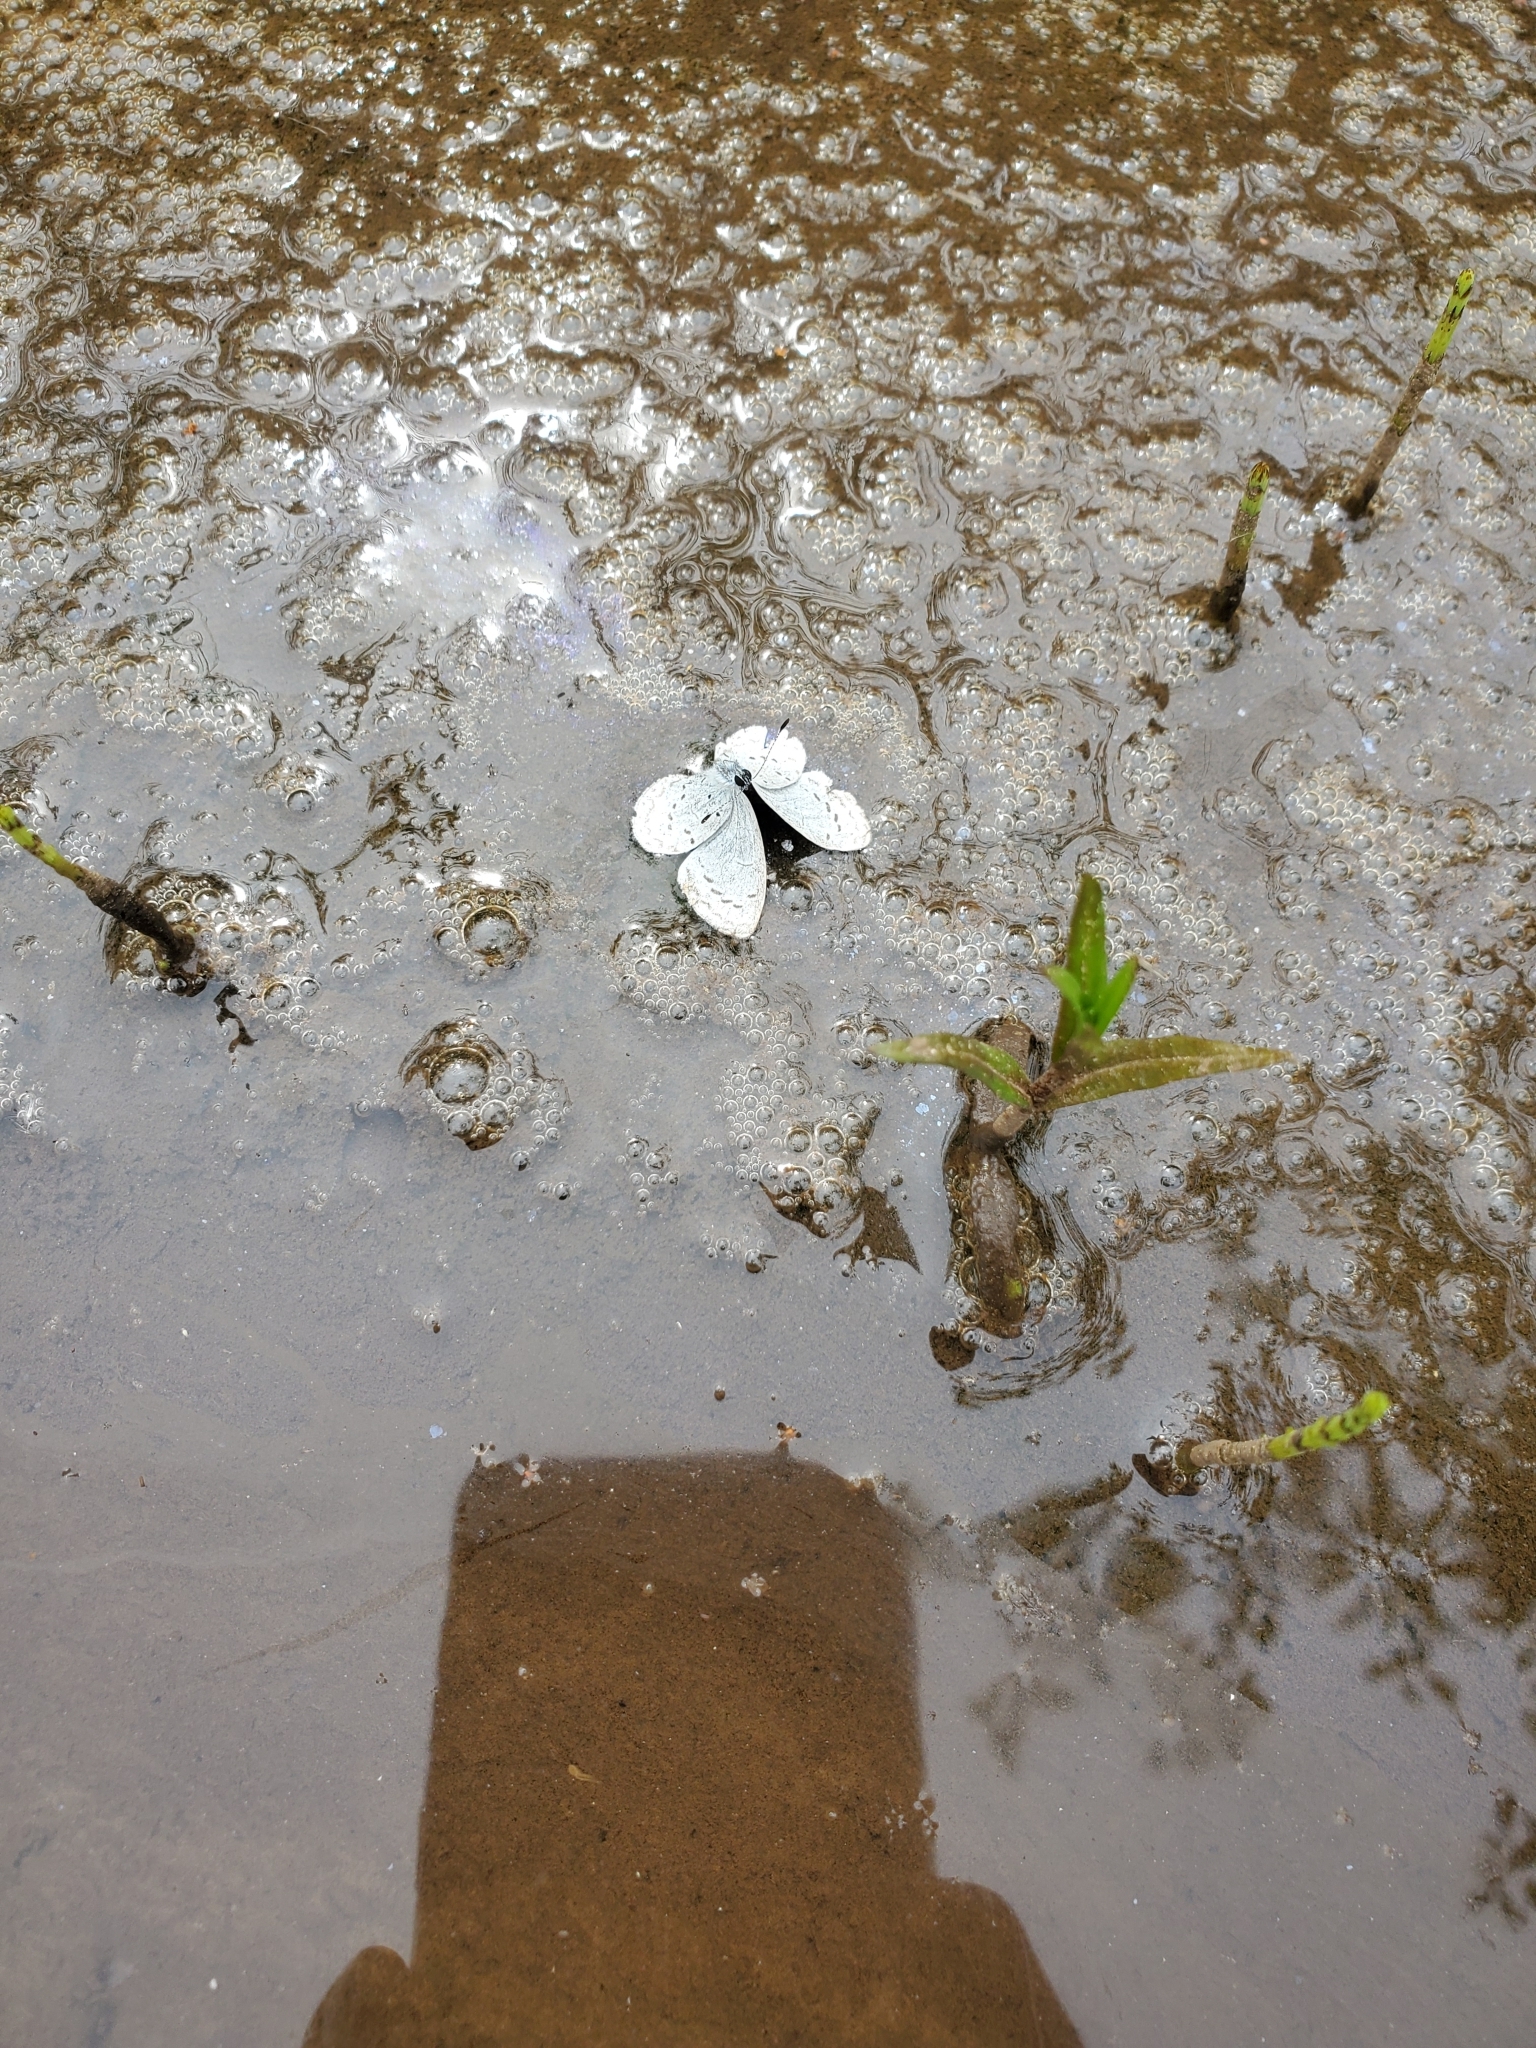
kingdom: Animalia
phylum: Arthropoda
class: Insecta
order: Lepidoptera
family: Lycaenidae
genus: Celastrina
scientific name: Celastrina ladon
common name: Spring azure
